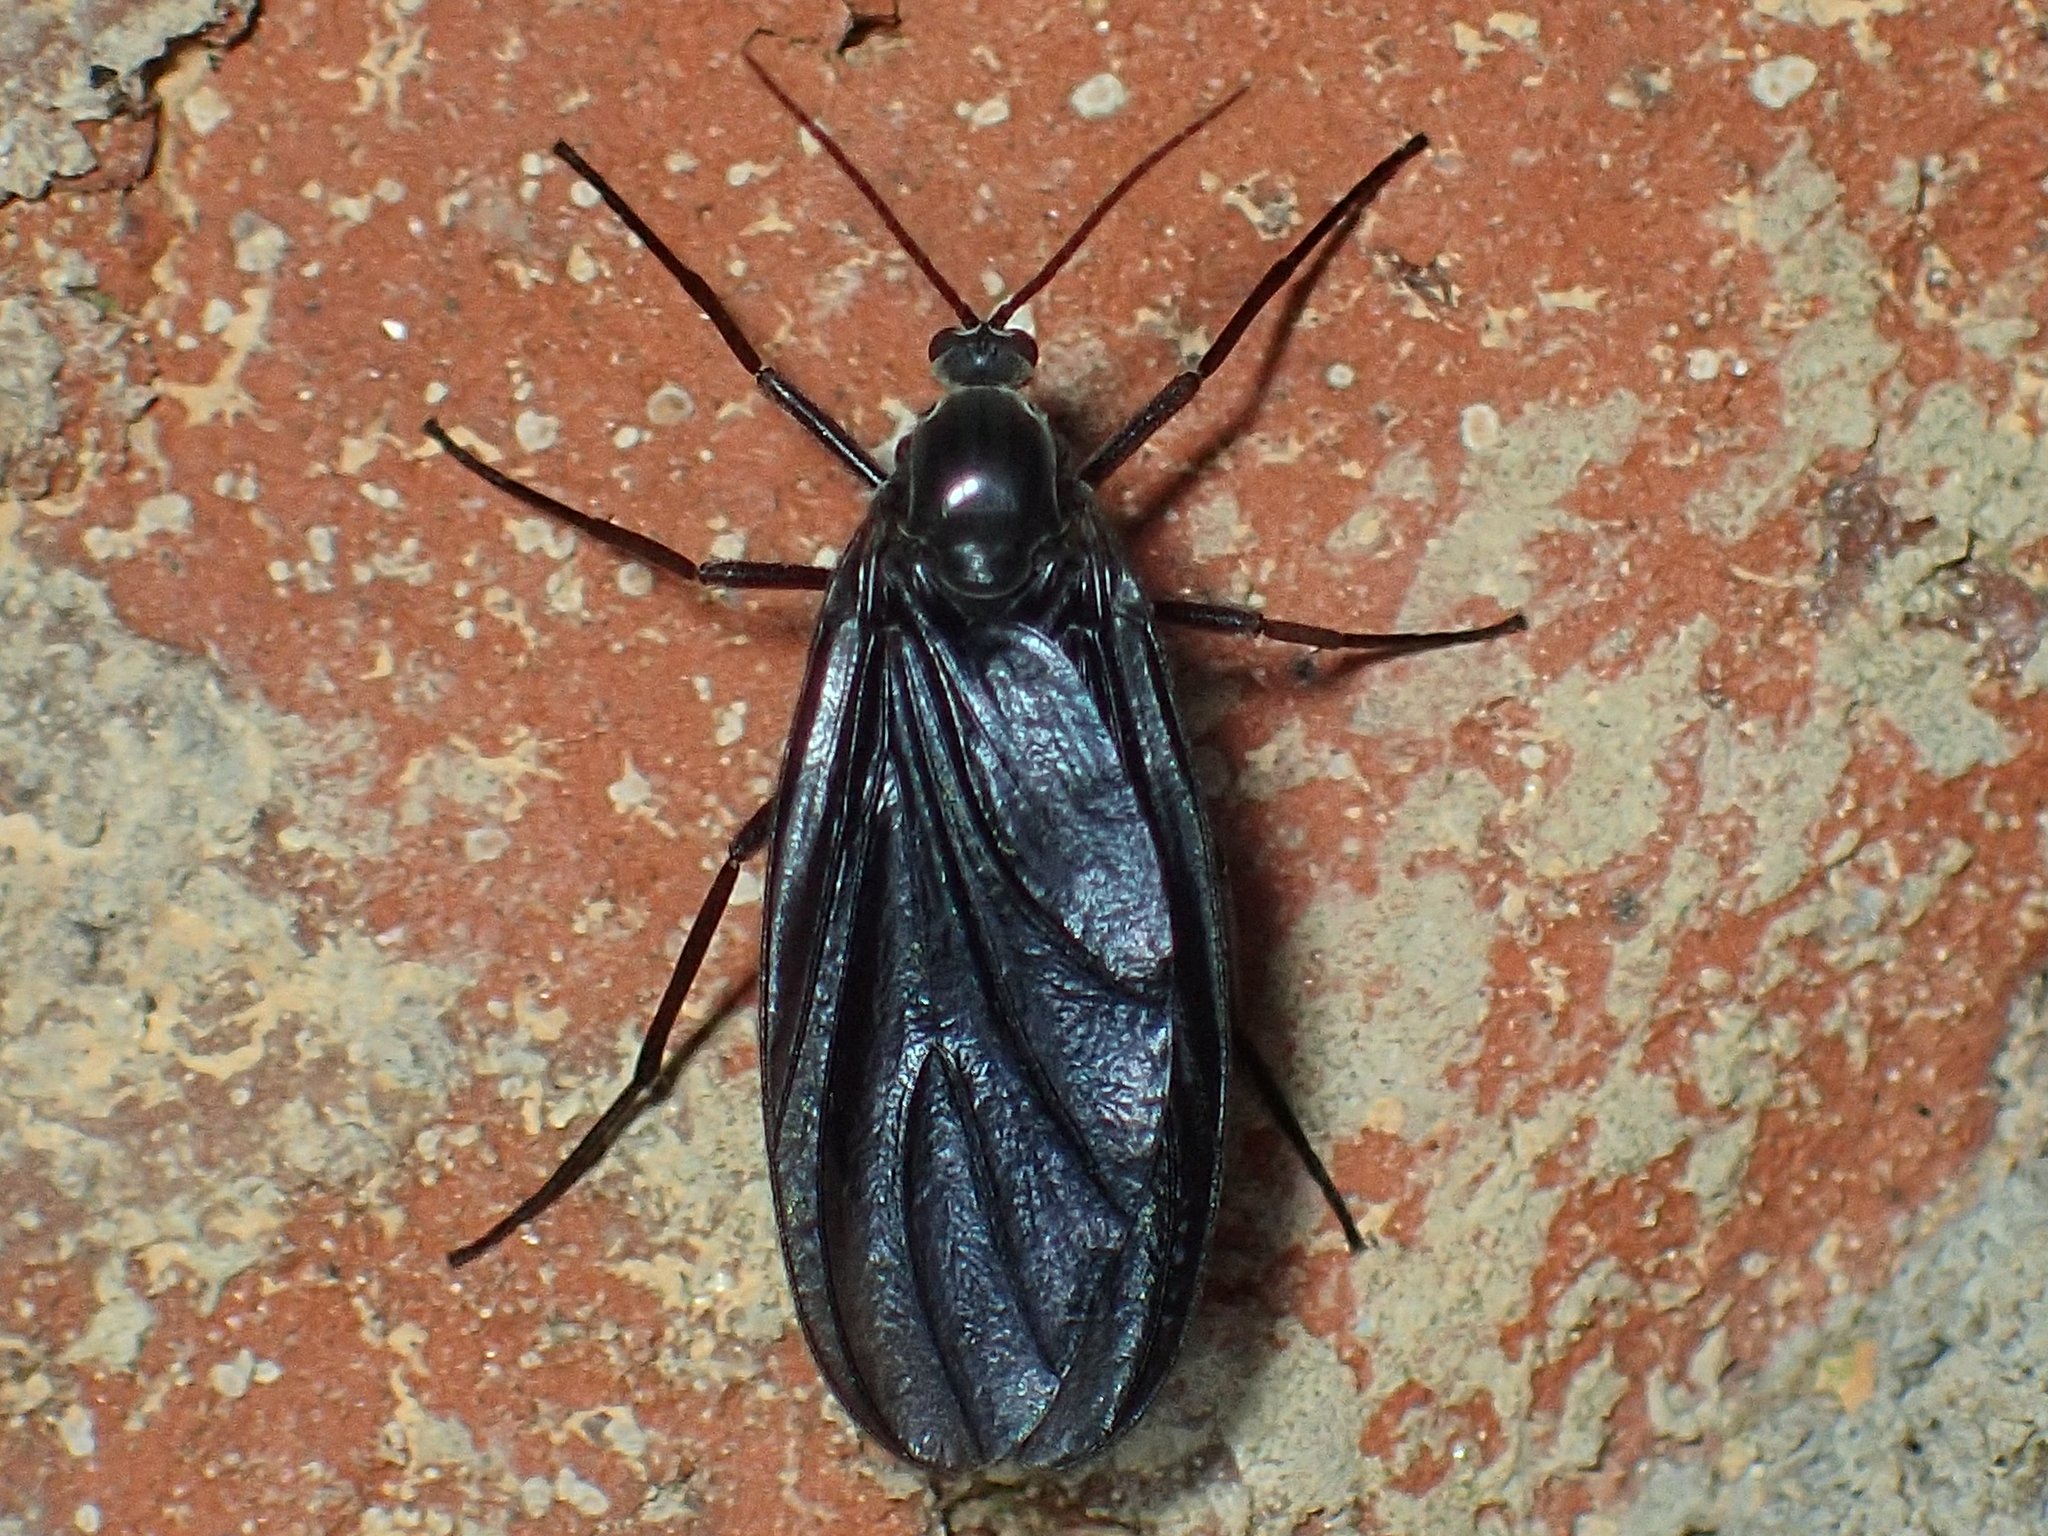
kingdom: Animalia
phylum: Arthropoda
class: Insecta
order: Diptera
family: Sciaridae
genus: Odontosciara
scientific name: Odontosciara nigra
